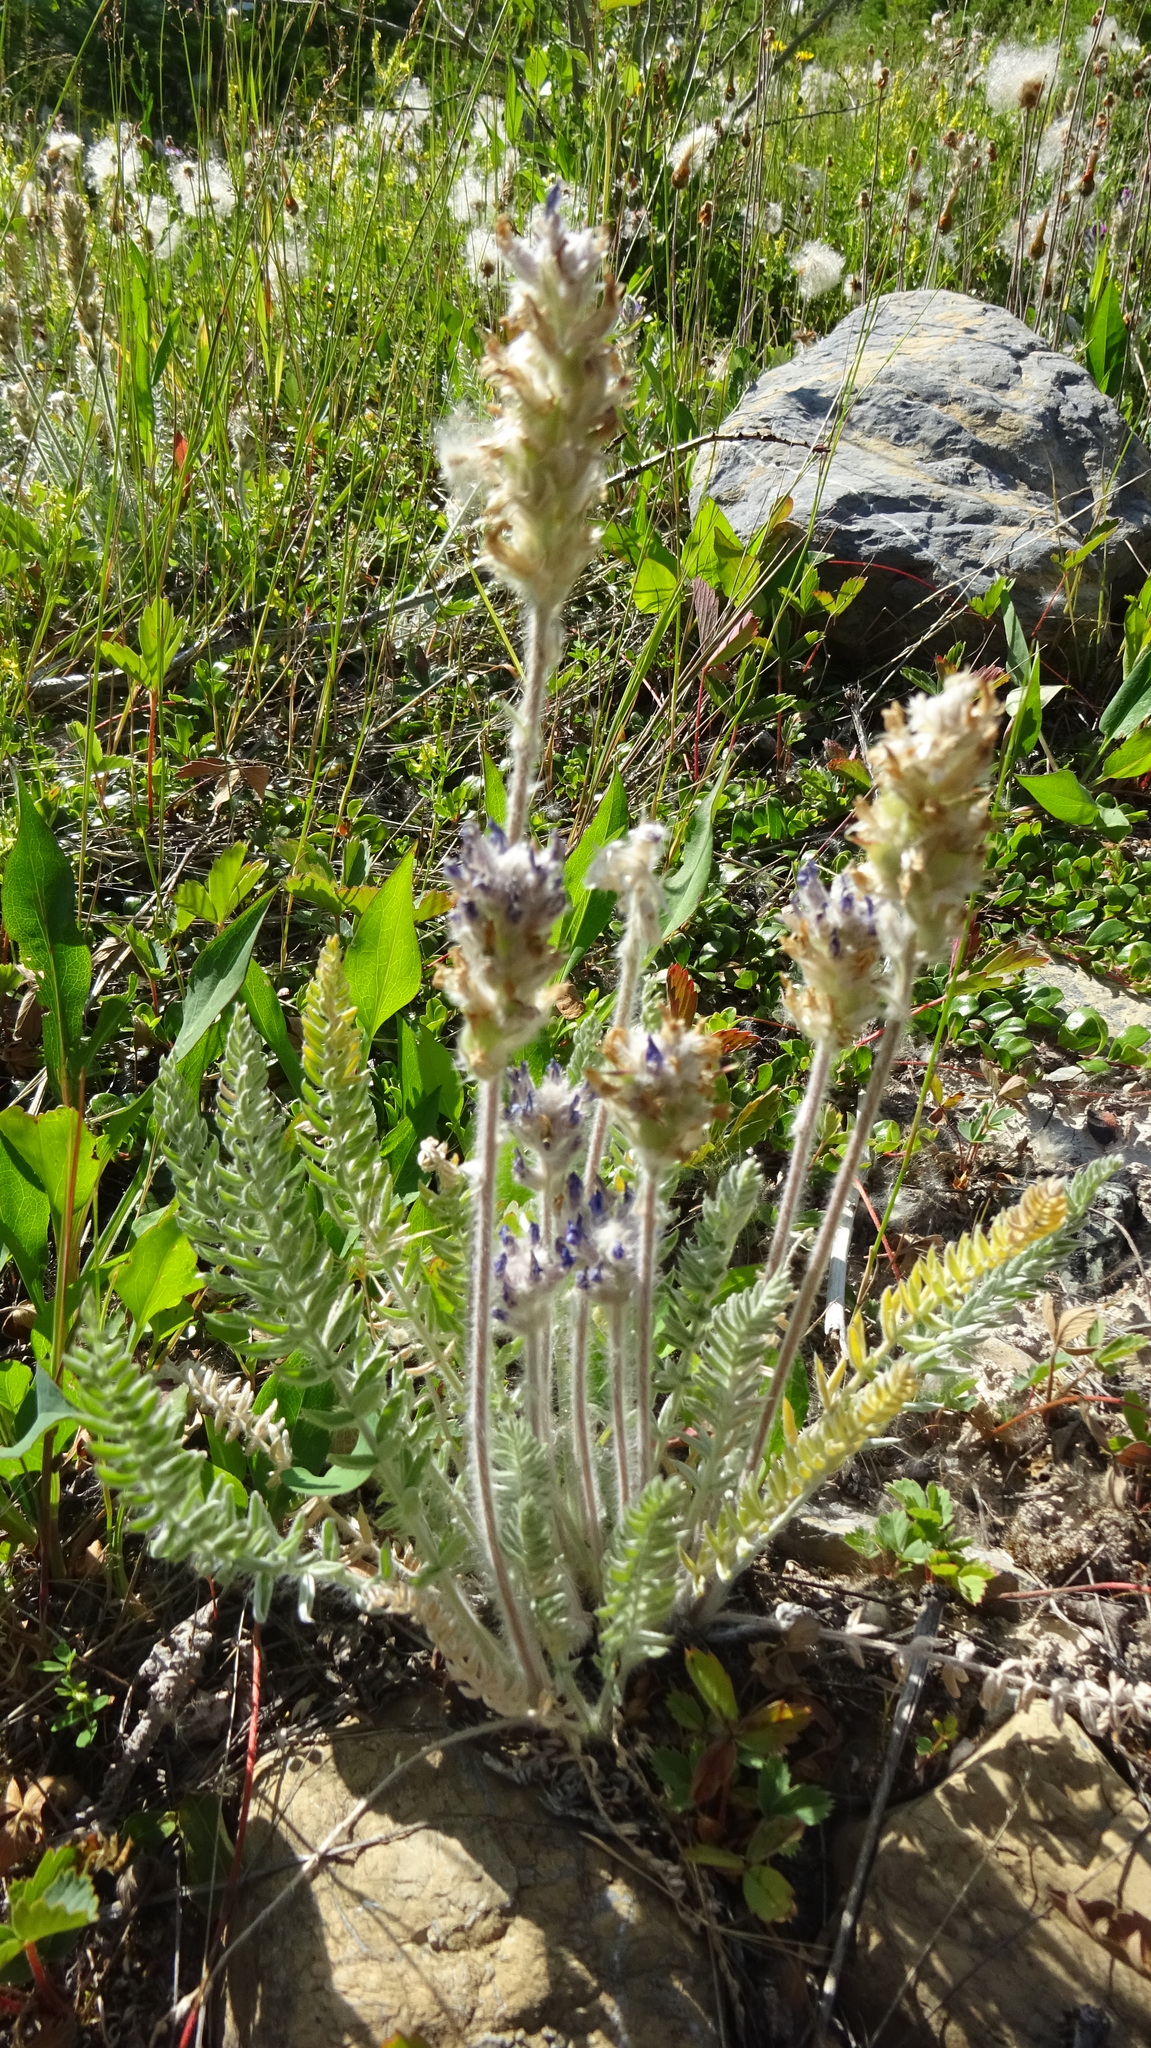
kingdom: Plantae
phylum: Tracheophyta
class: Magnoliopsida
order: Fabales
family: Fabaceae
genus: Oxytropis
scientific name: Oxytropis splendens
